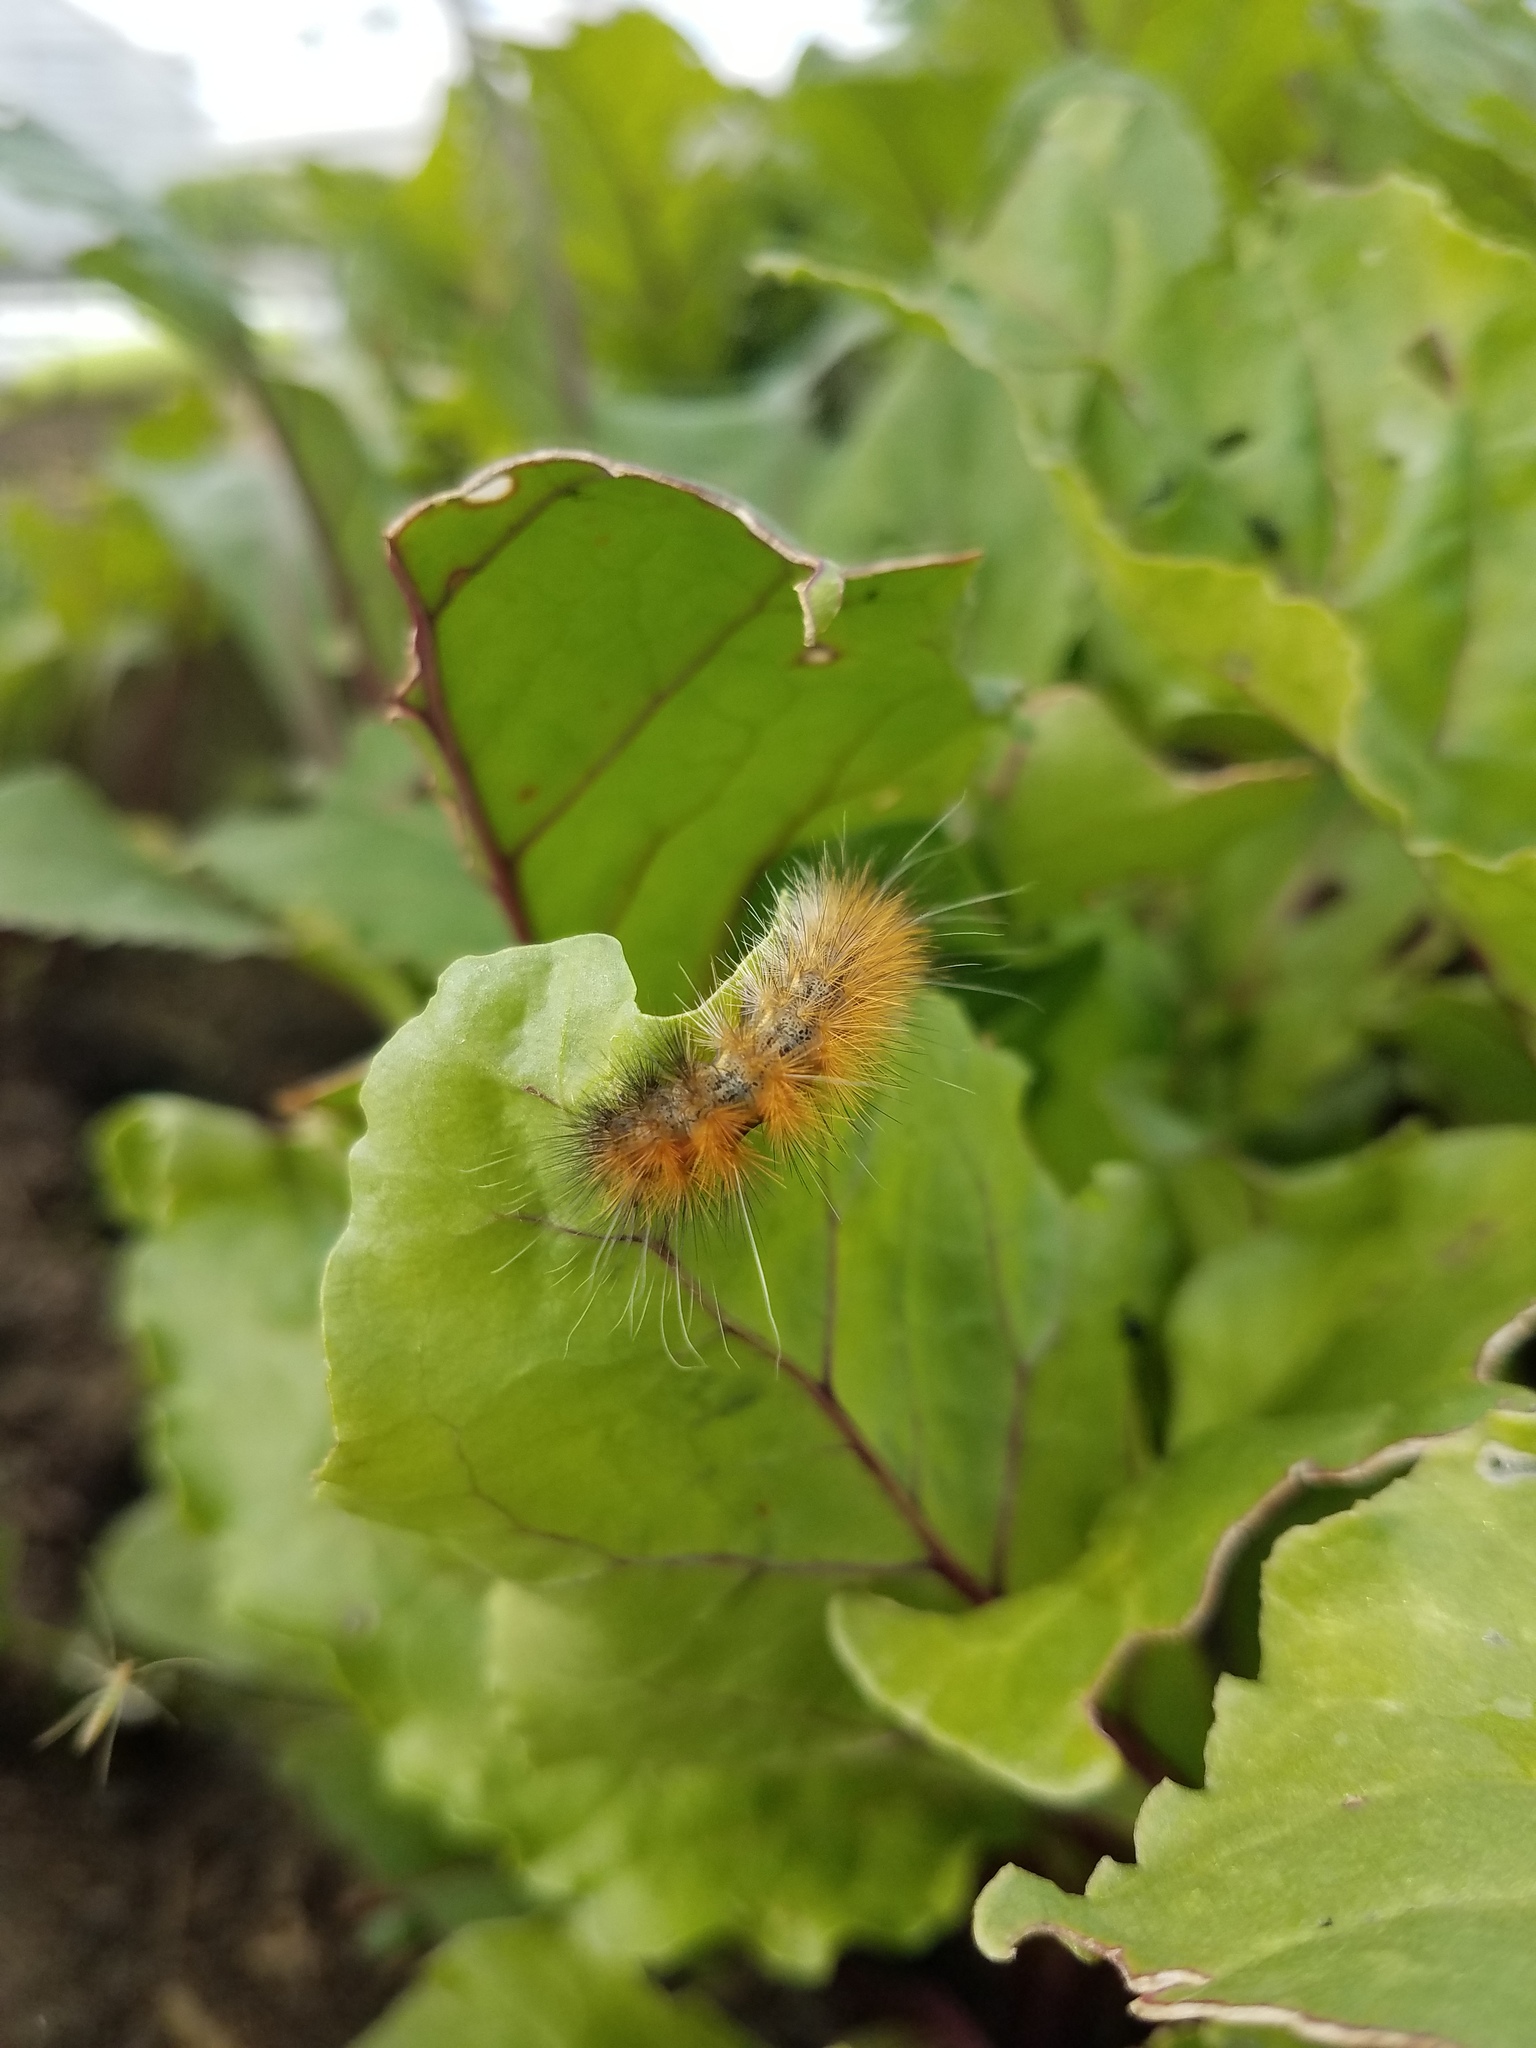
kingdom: Animalia
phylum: Arthropoda
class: Insecta
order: Lepidoptera
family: Erebidae
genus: Spilosoma
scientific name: Spilosoma virginica
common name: Virginia tiger moth
